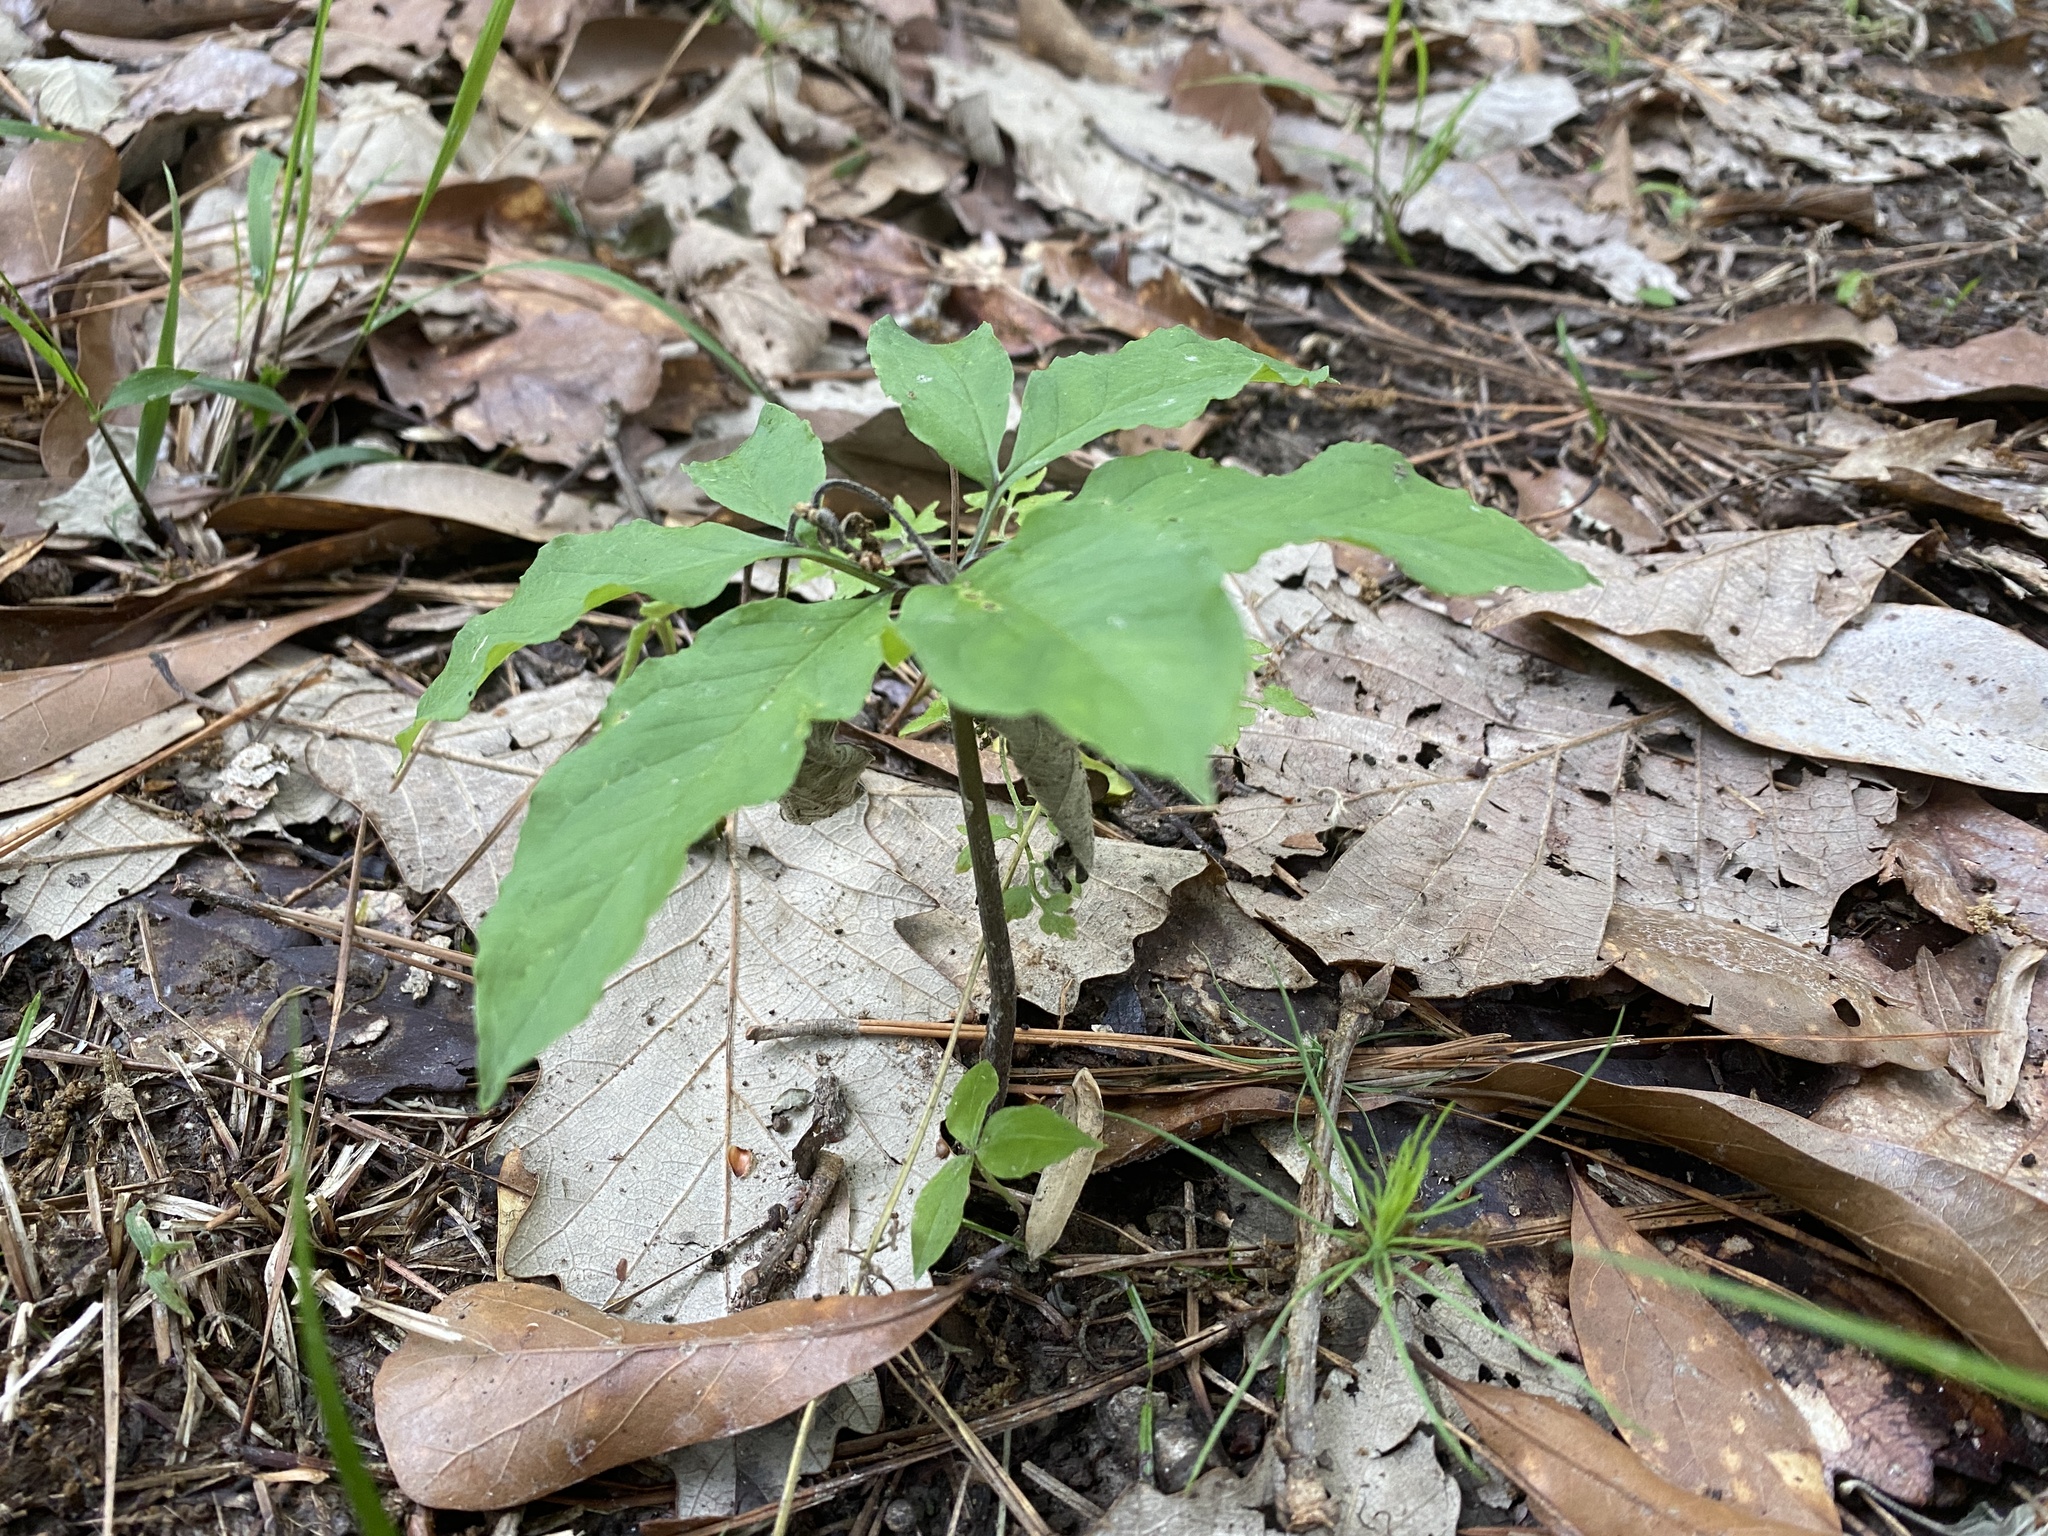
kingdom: Plantae
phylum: Tracheophyta
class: Liliopsida
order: Alismatales
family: Araceae
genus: Arisaema
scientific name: Arisaema dracontium
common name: Dragon-arum
